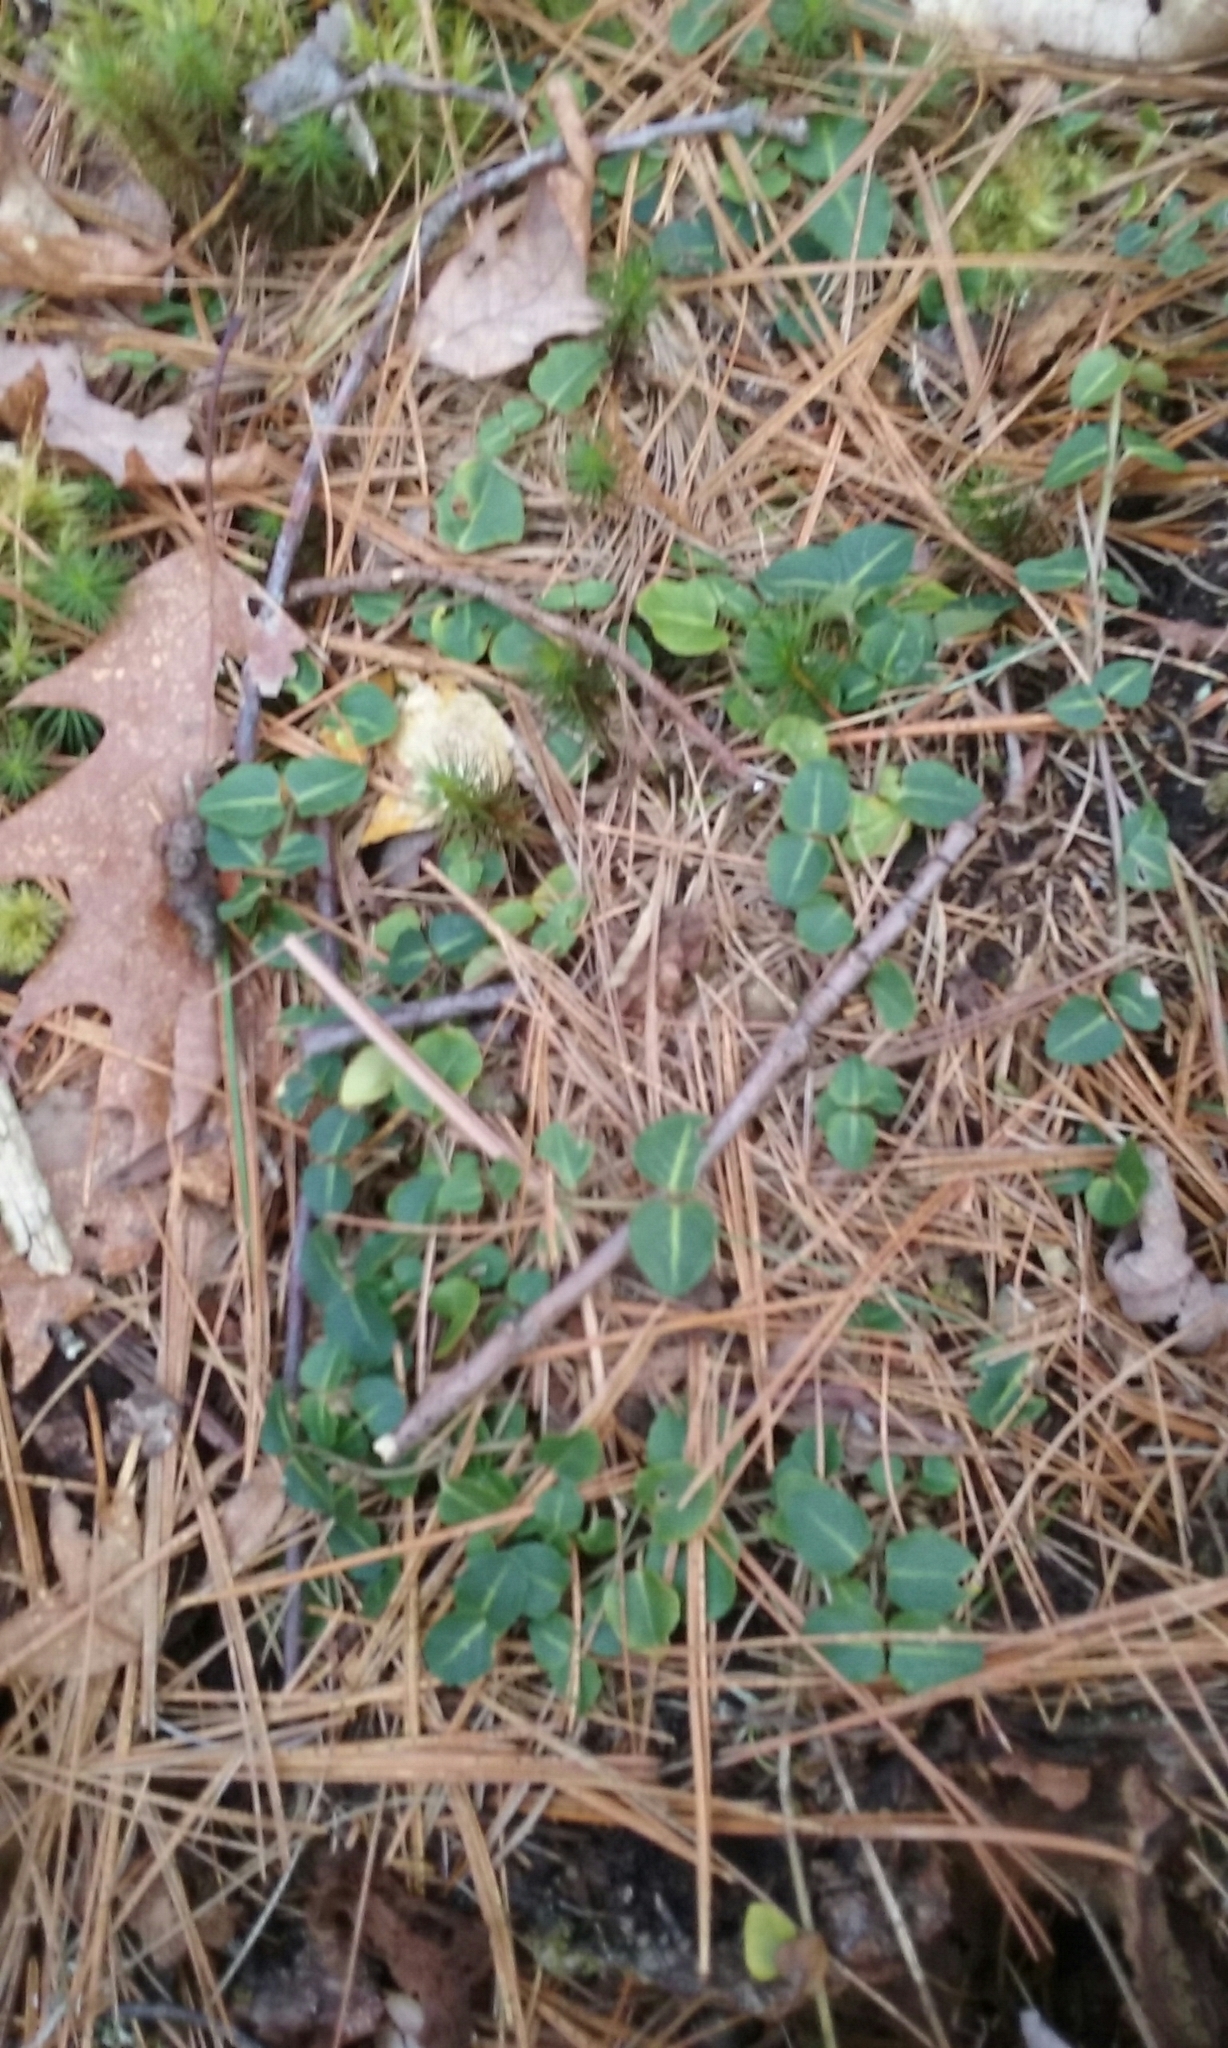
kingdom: Plantae
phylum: Tracheophyta
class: Magnoliopsida
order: Gentianales
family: Rubiaceae
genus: Mitchella
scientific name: Mitchella repens
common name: Partridge-berry
